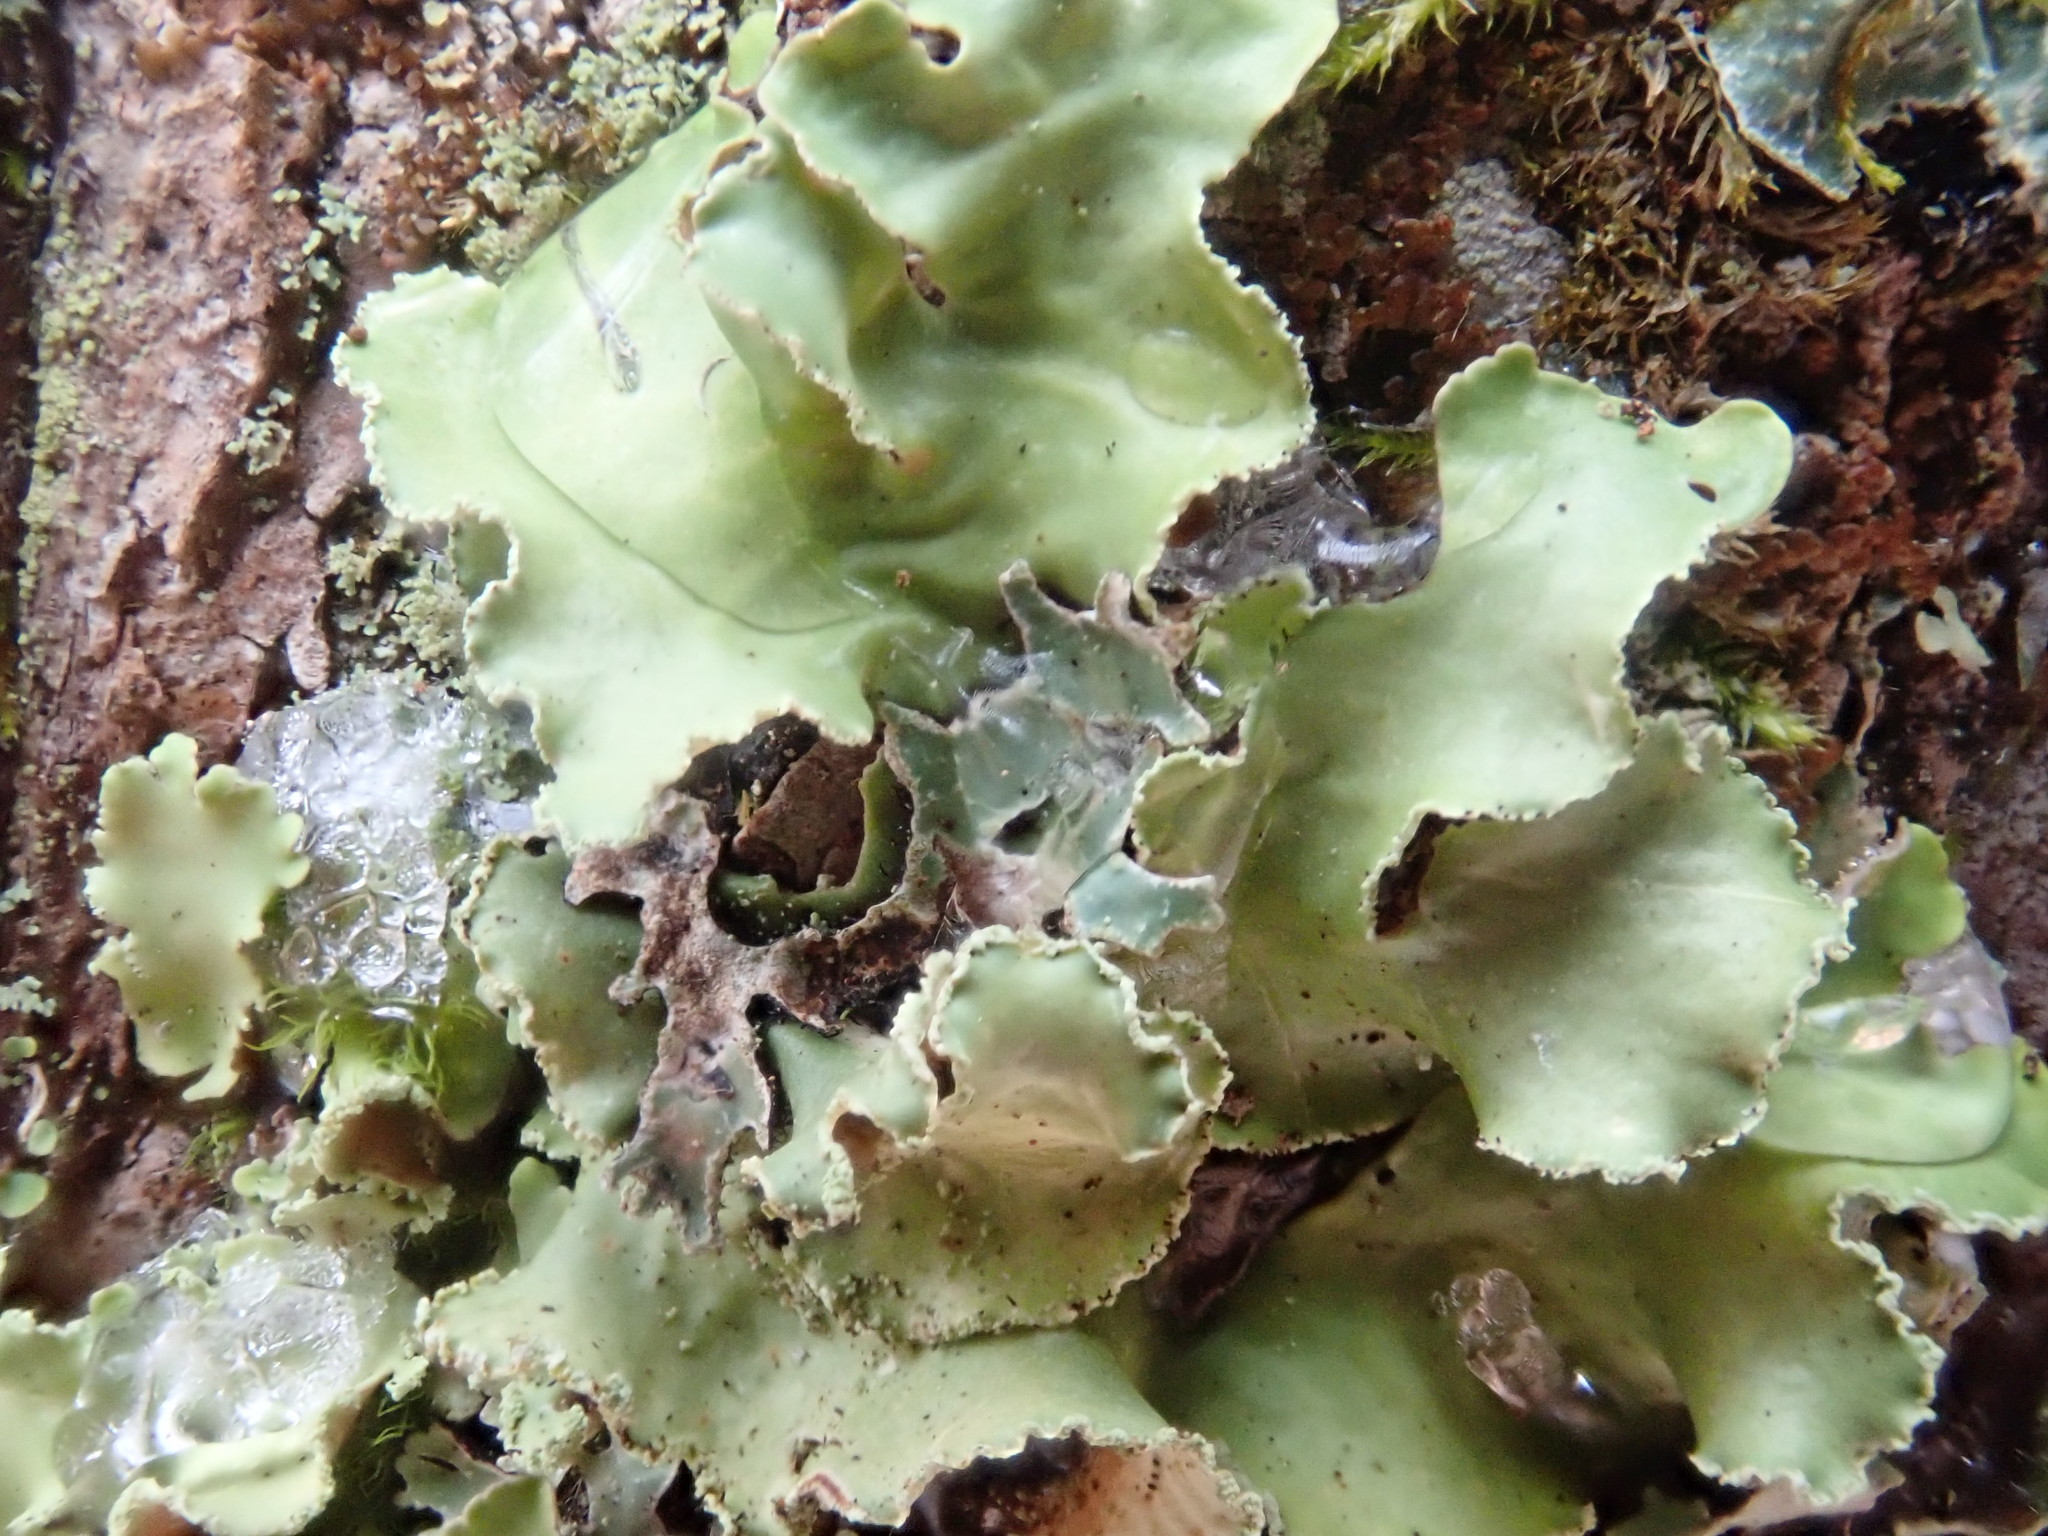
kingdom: Fungi
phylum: Ascomycota
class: Lecanoromycetes
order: Lecanorales
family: Parmeliaceae
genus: Usnocetraria
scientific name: Usnocetraria oakesiana
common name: Yellow ribbon lichen
